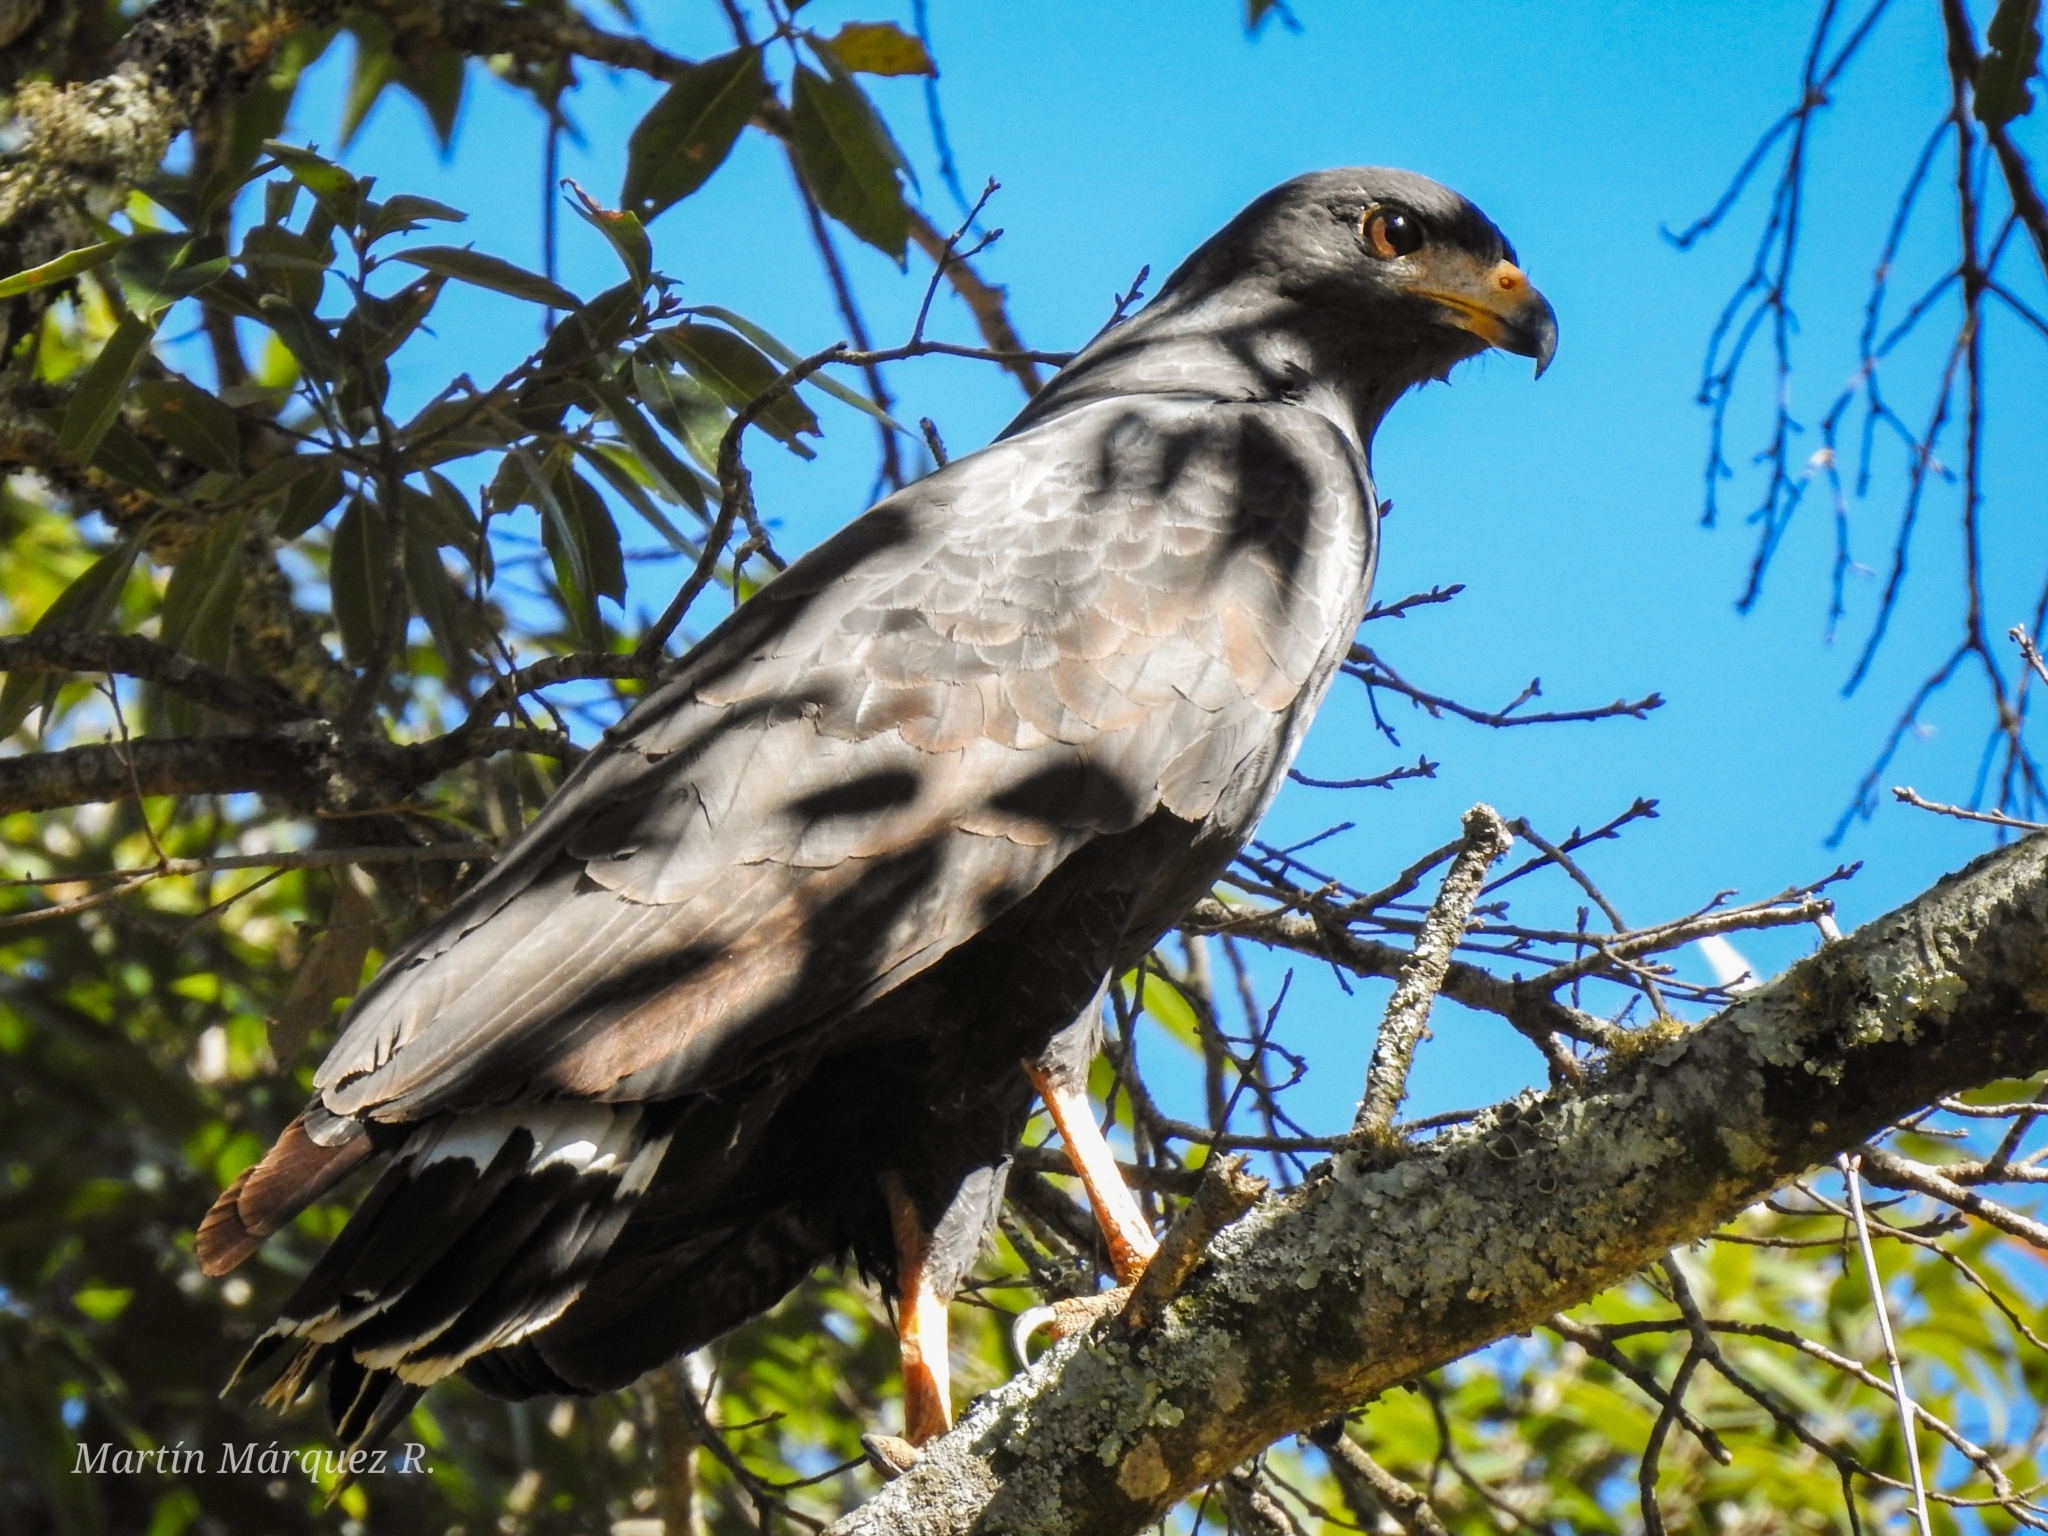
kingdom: Animalia
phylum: Chordata
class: Aves
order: Accipitriformes
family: Accipitridae
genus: Buteogallus
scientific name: Buteogallus anthracinus
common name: Common black hawk
